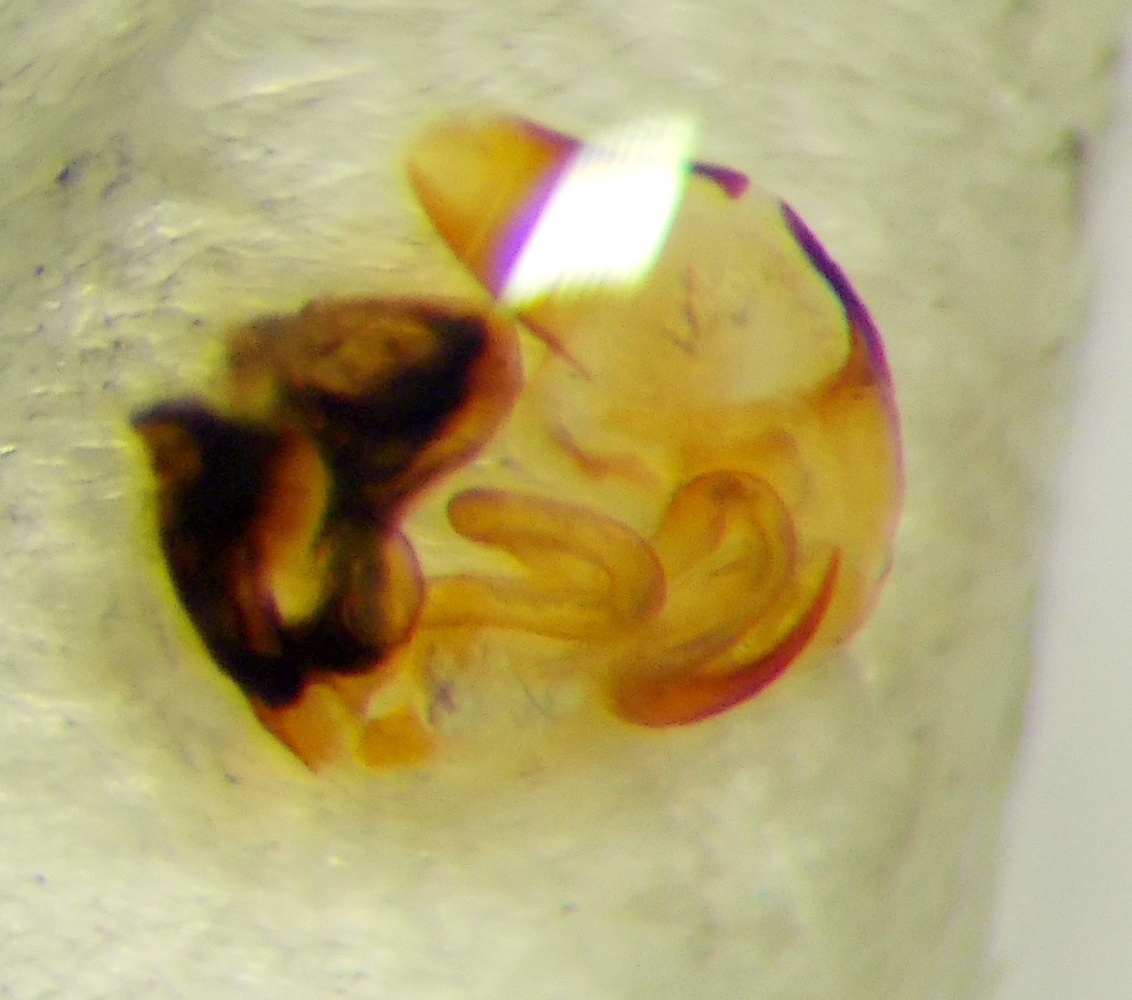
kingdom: Animalia
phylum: Arthropoda
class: Insecta
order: Hemiptera
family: Nabidae
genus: Nabis
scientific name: Nabis pseudoferus
